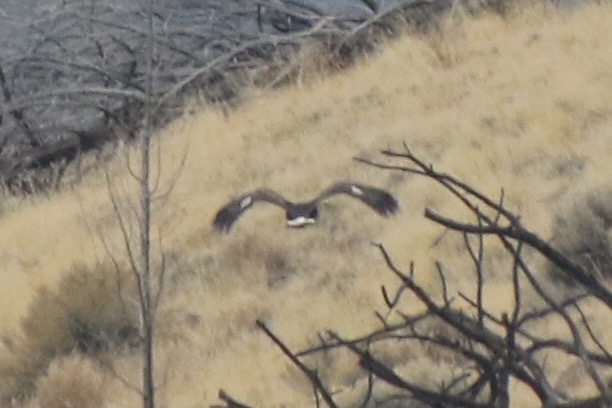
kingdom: Animalia
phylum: Chordata
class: Aves
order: Accipitriformes
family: Accipitridae
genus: Aquila
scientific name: Aquila chrysaetos
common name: Golden eagle
